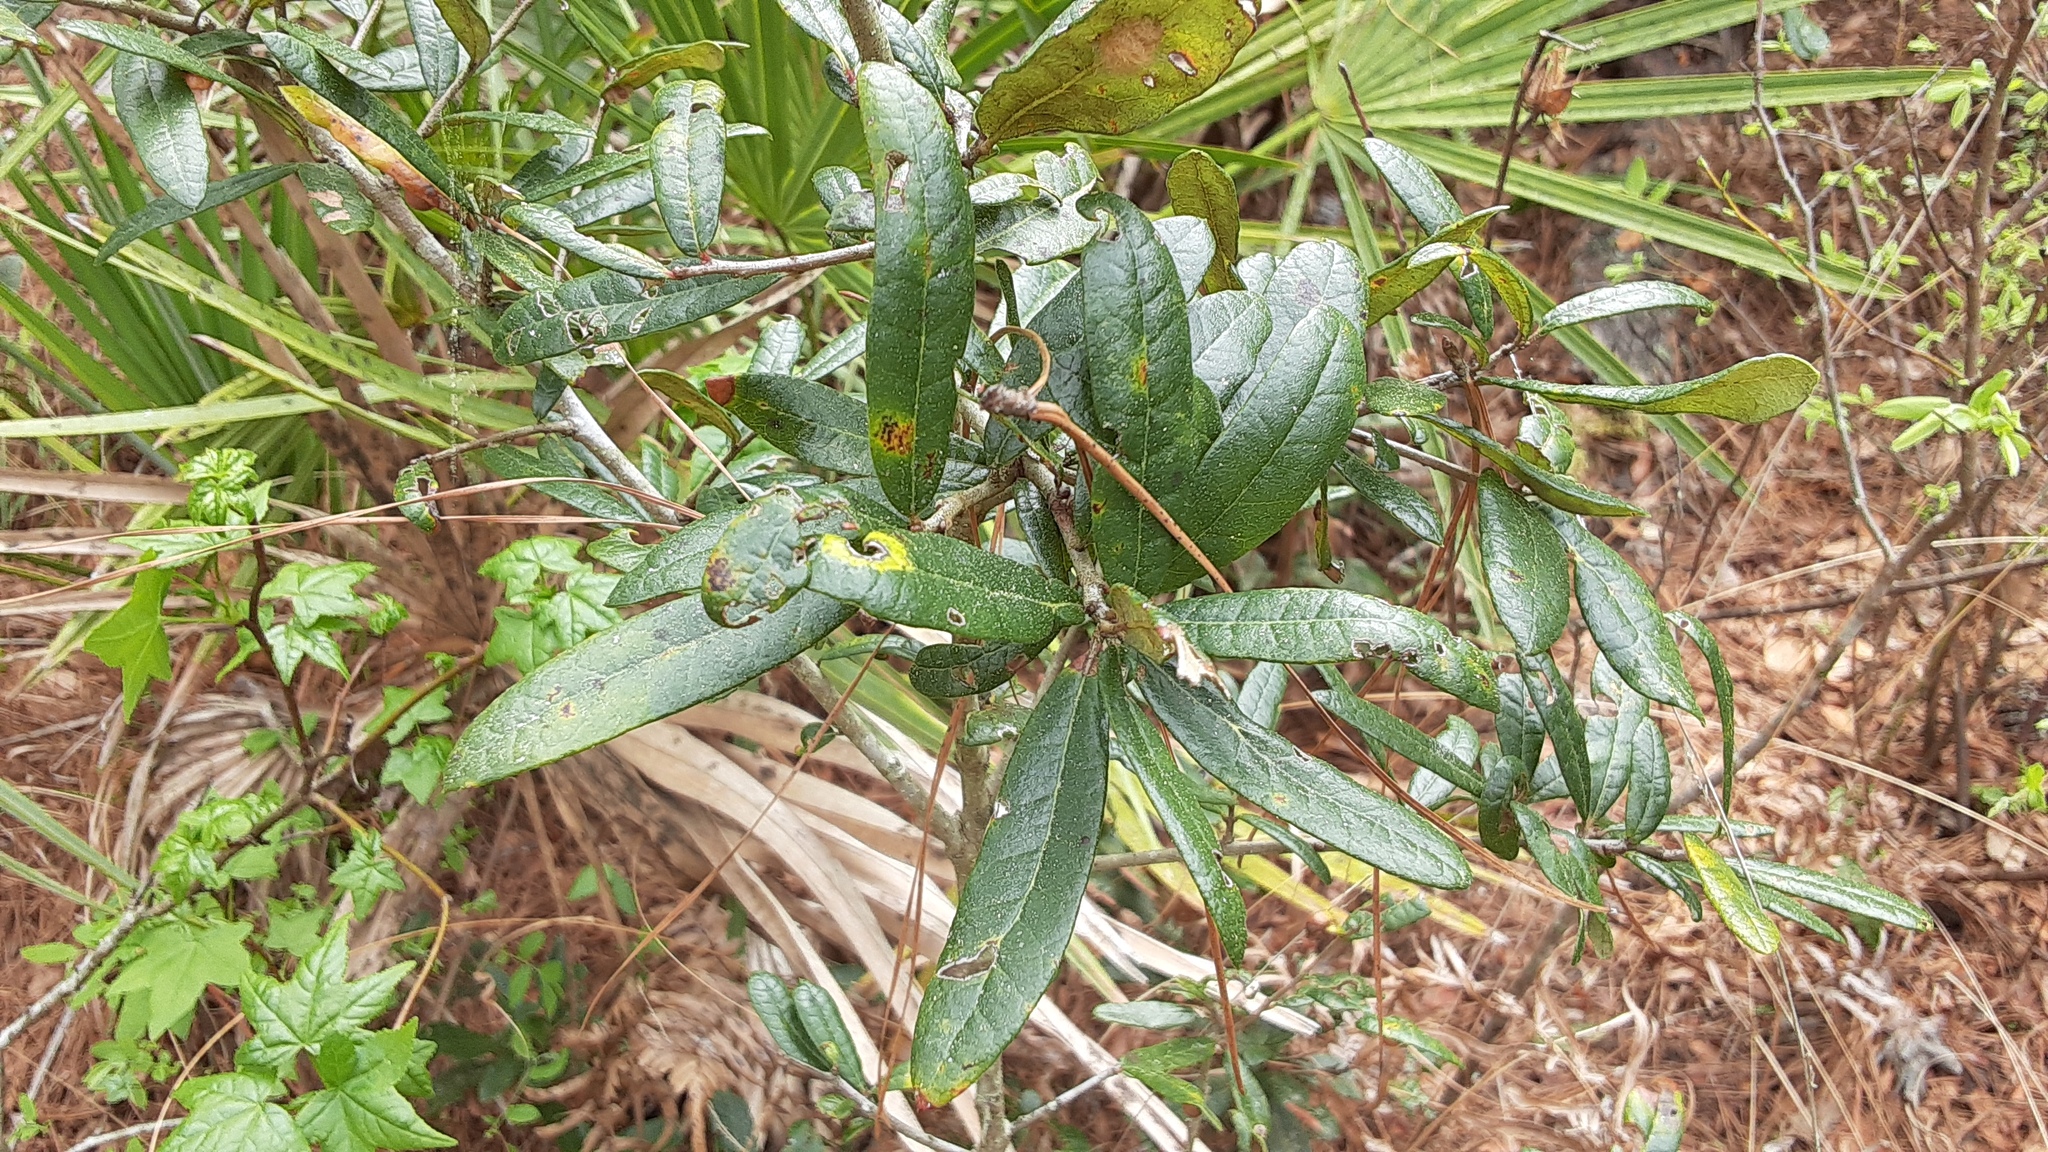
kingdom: Plantae
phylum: Tracheophyta
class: Magnoliopsida
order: Fagales
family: Fagaceae
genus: Quercus
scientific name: Quercus virginiana
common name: Southern live oak
